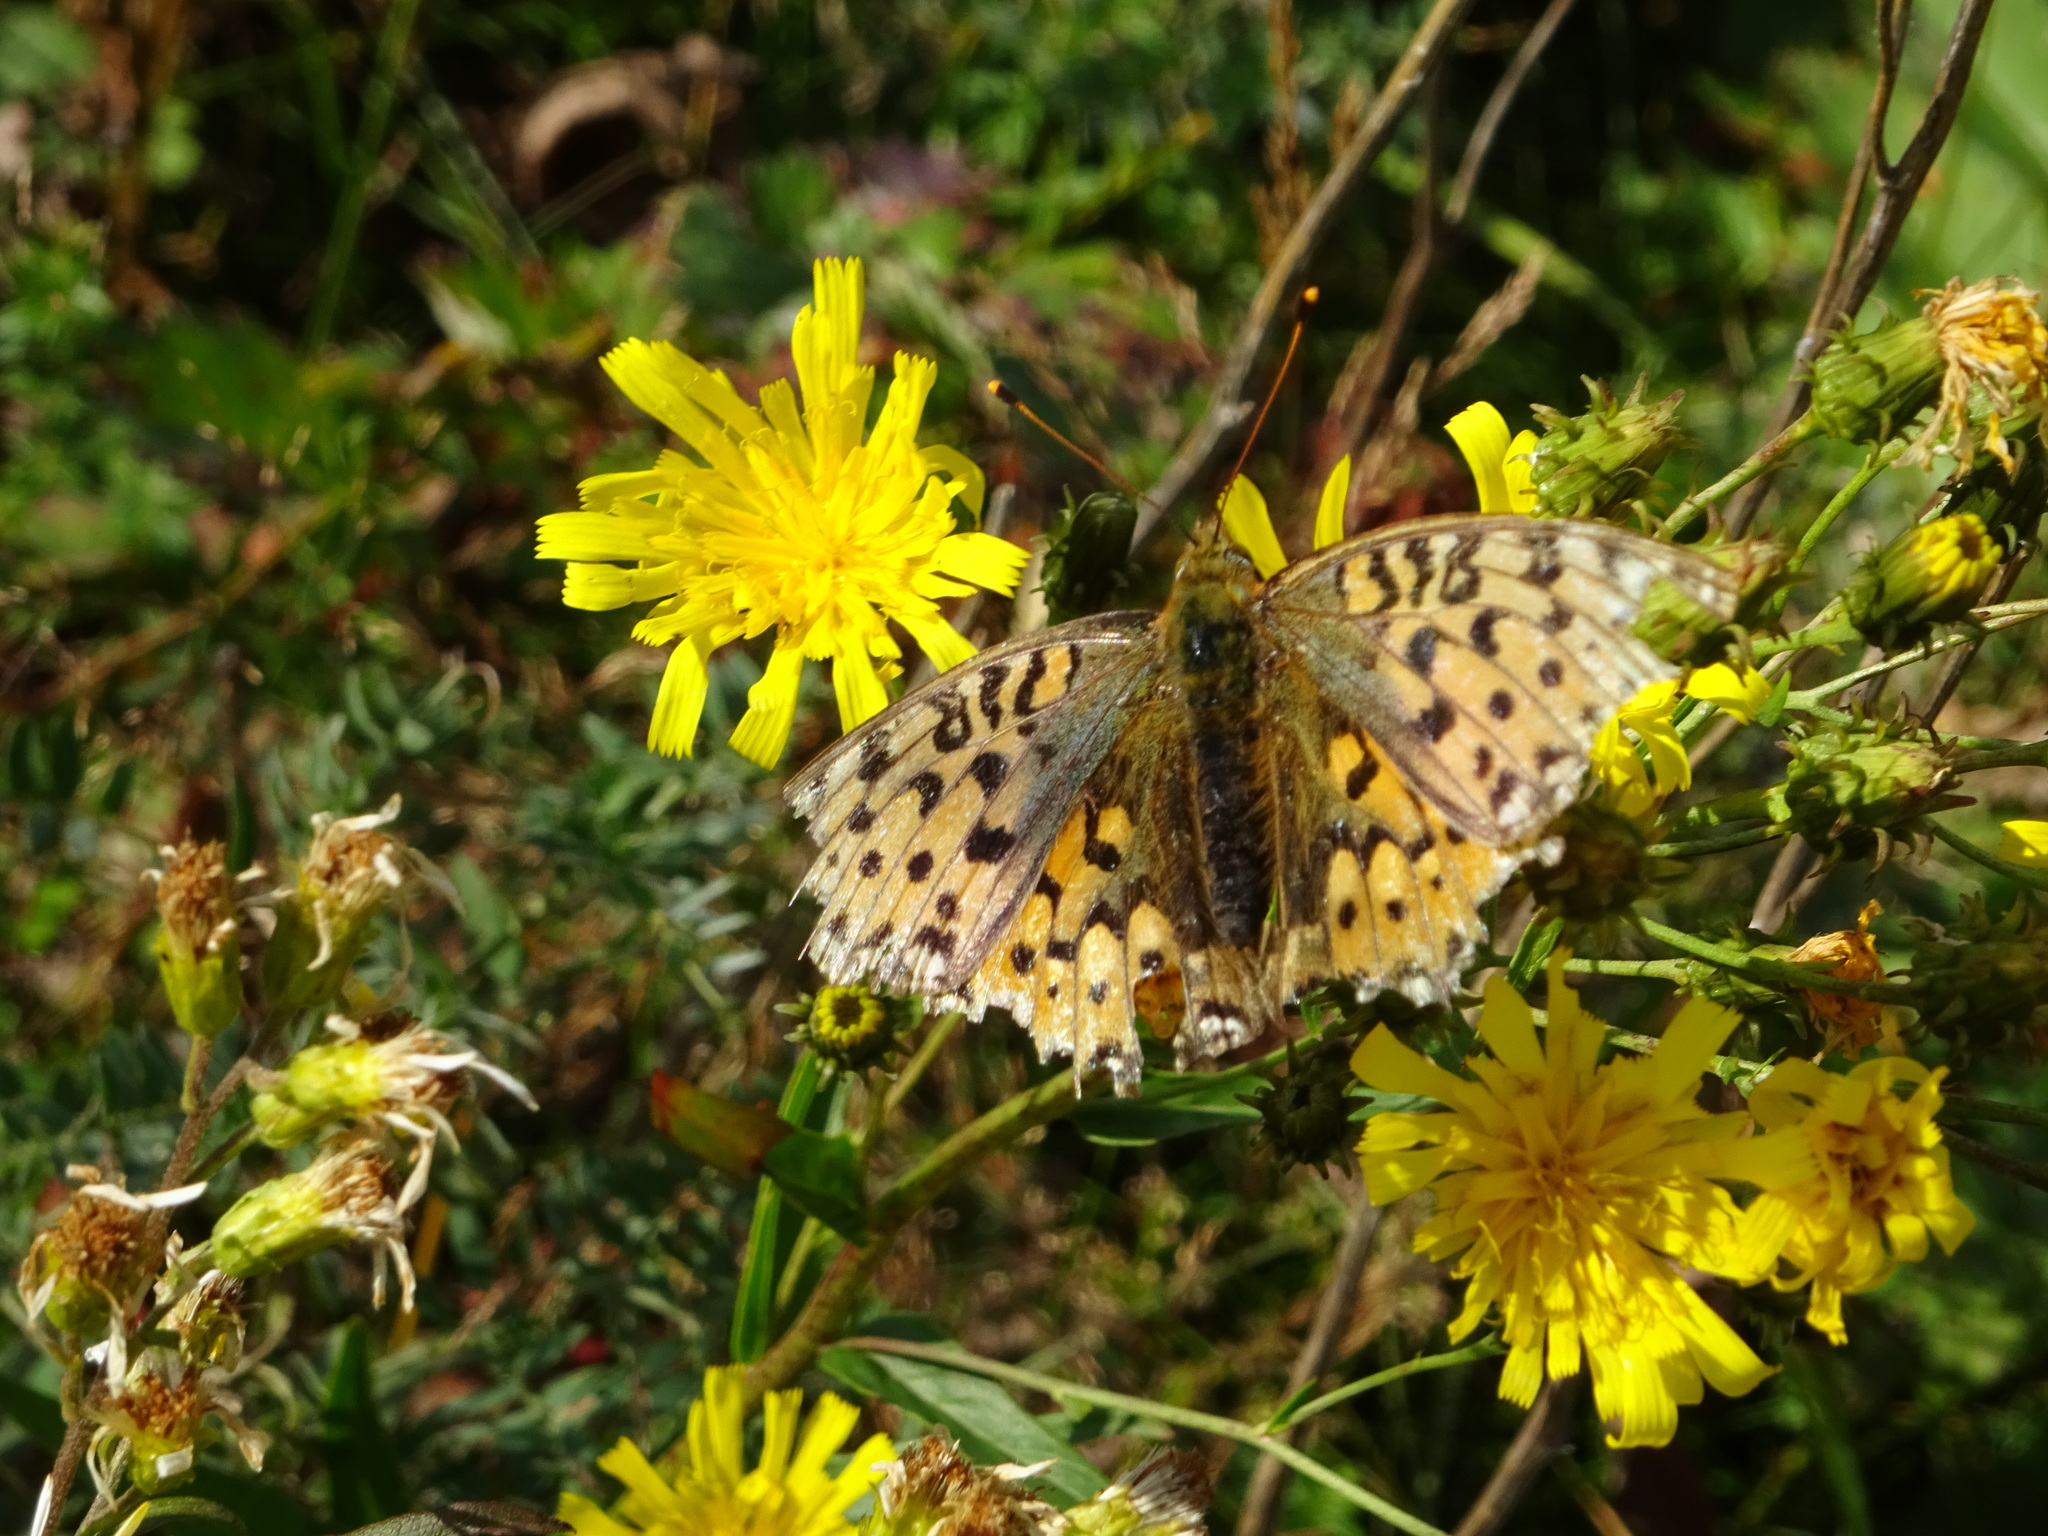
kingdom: Animalia
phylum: Arthropoda
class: Insecta
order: Lepidoptera
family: Nymphalidae
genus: Speyeria
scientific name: Speyeria aglaja
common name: Dark green fritillary
